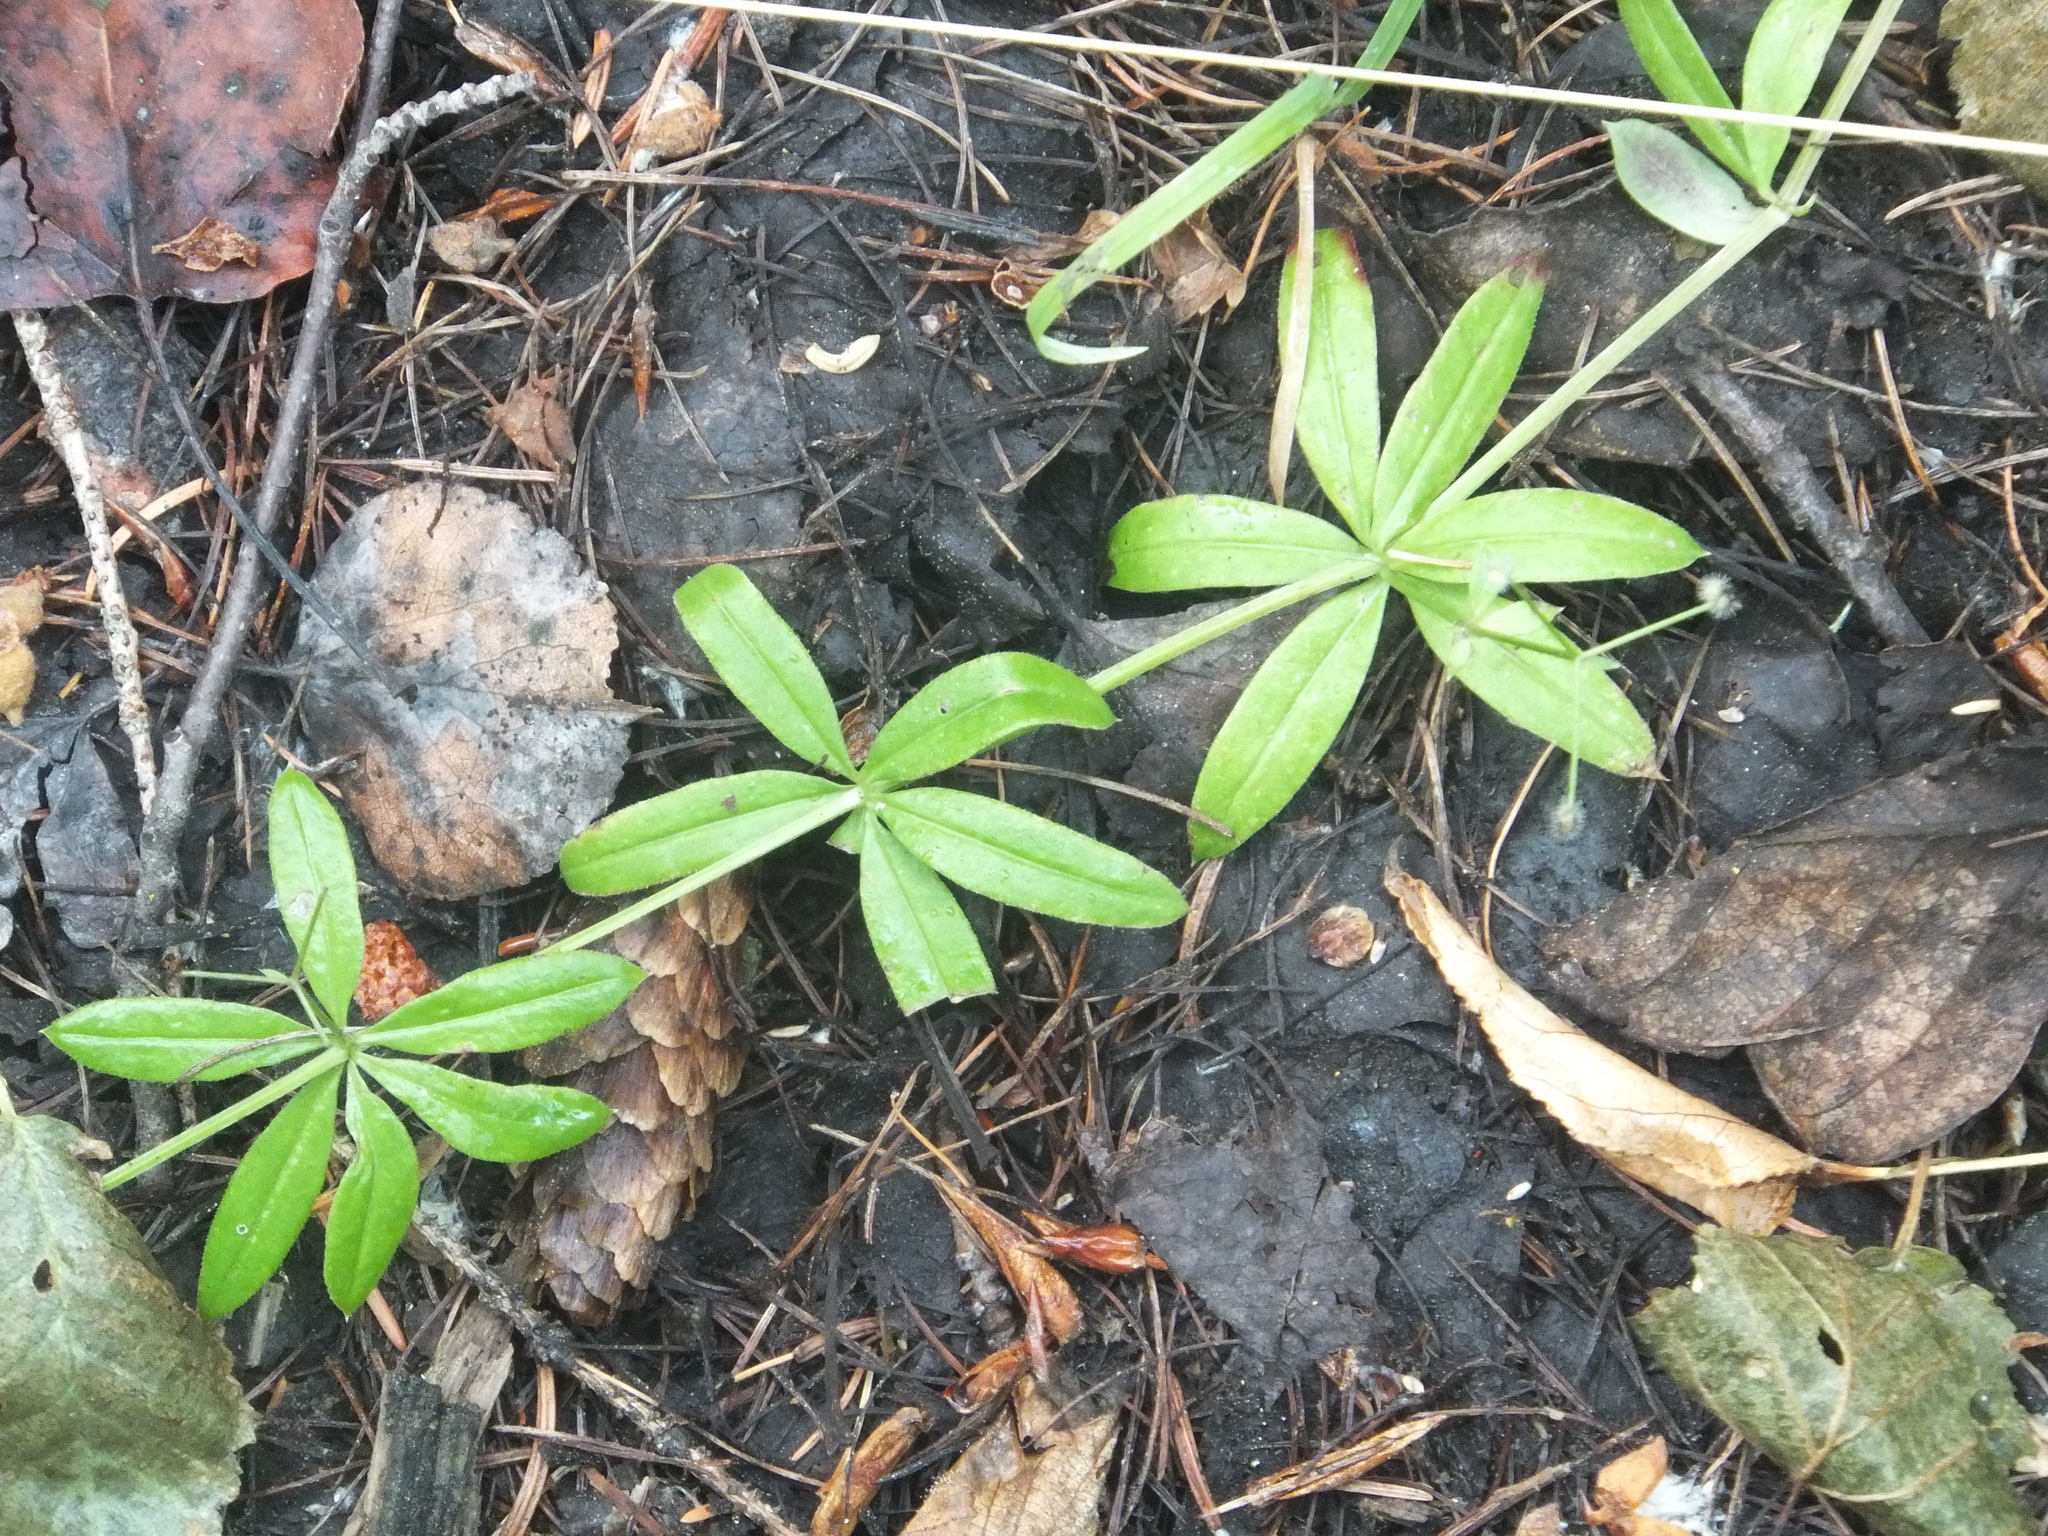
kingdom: Plantae
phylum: Tracheophyta
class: Magnoliopsida
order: Gentianales
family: Rubiaceae
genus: Galium
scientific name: Galium triflorum
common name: Fragrant bedstraw
